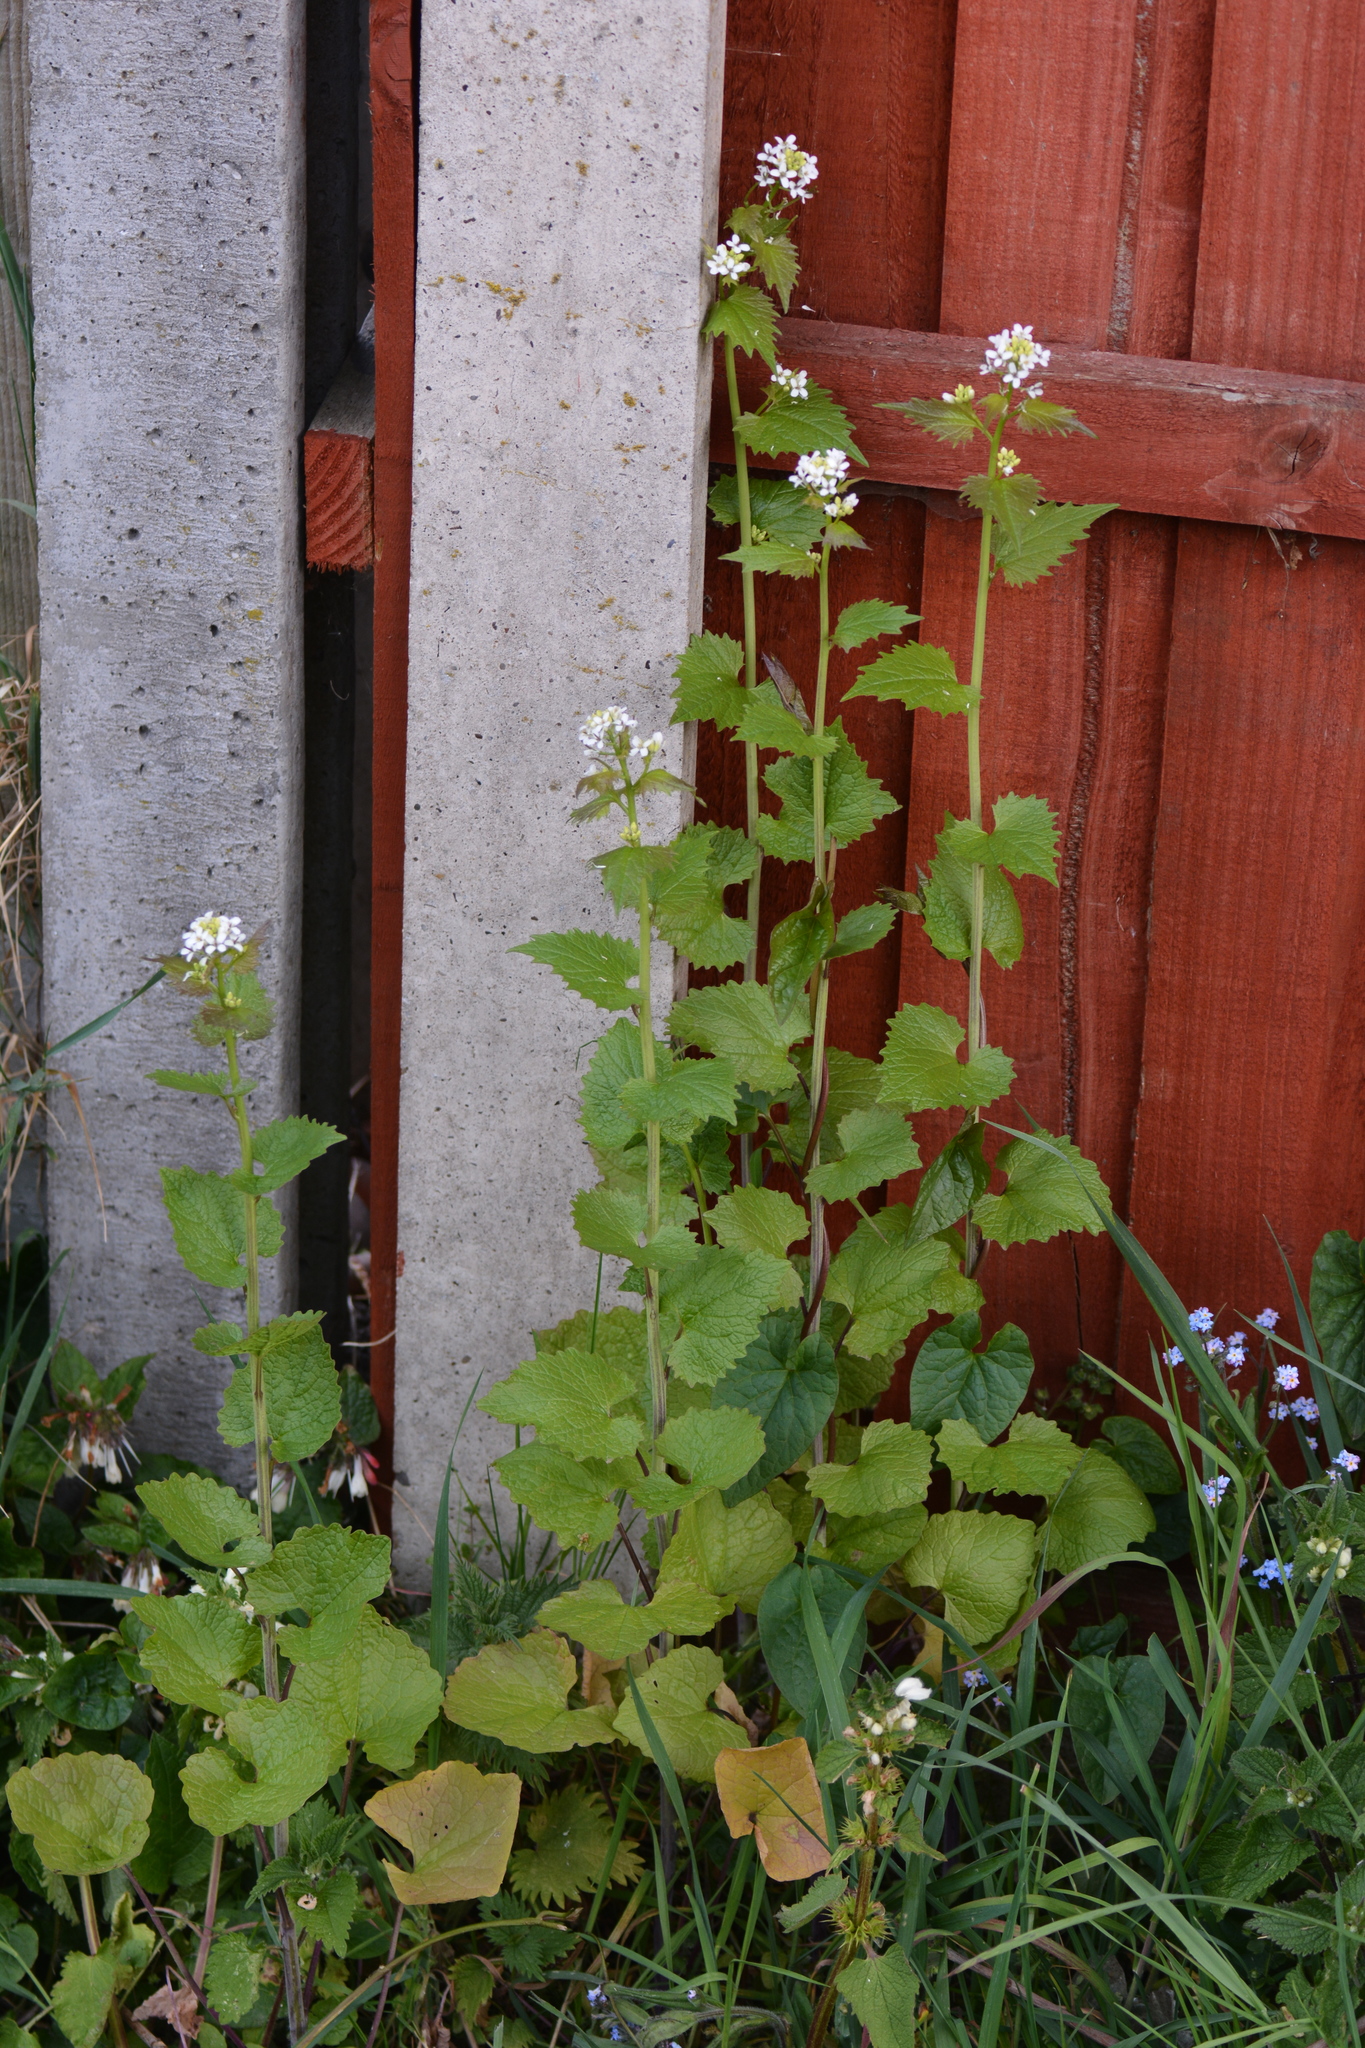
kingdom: Plantae
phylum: Tracheophyta
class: Magnoliopsida
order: Brassicales
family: Brassicaceae
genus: Alliaria
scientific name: Alliaria petiolata
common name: Garlic mustard
